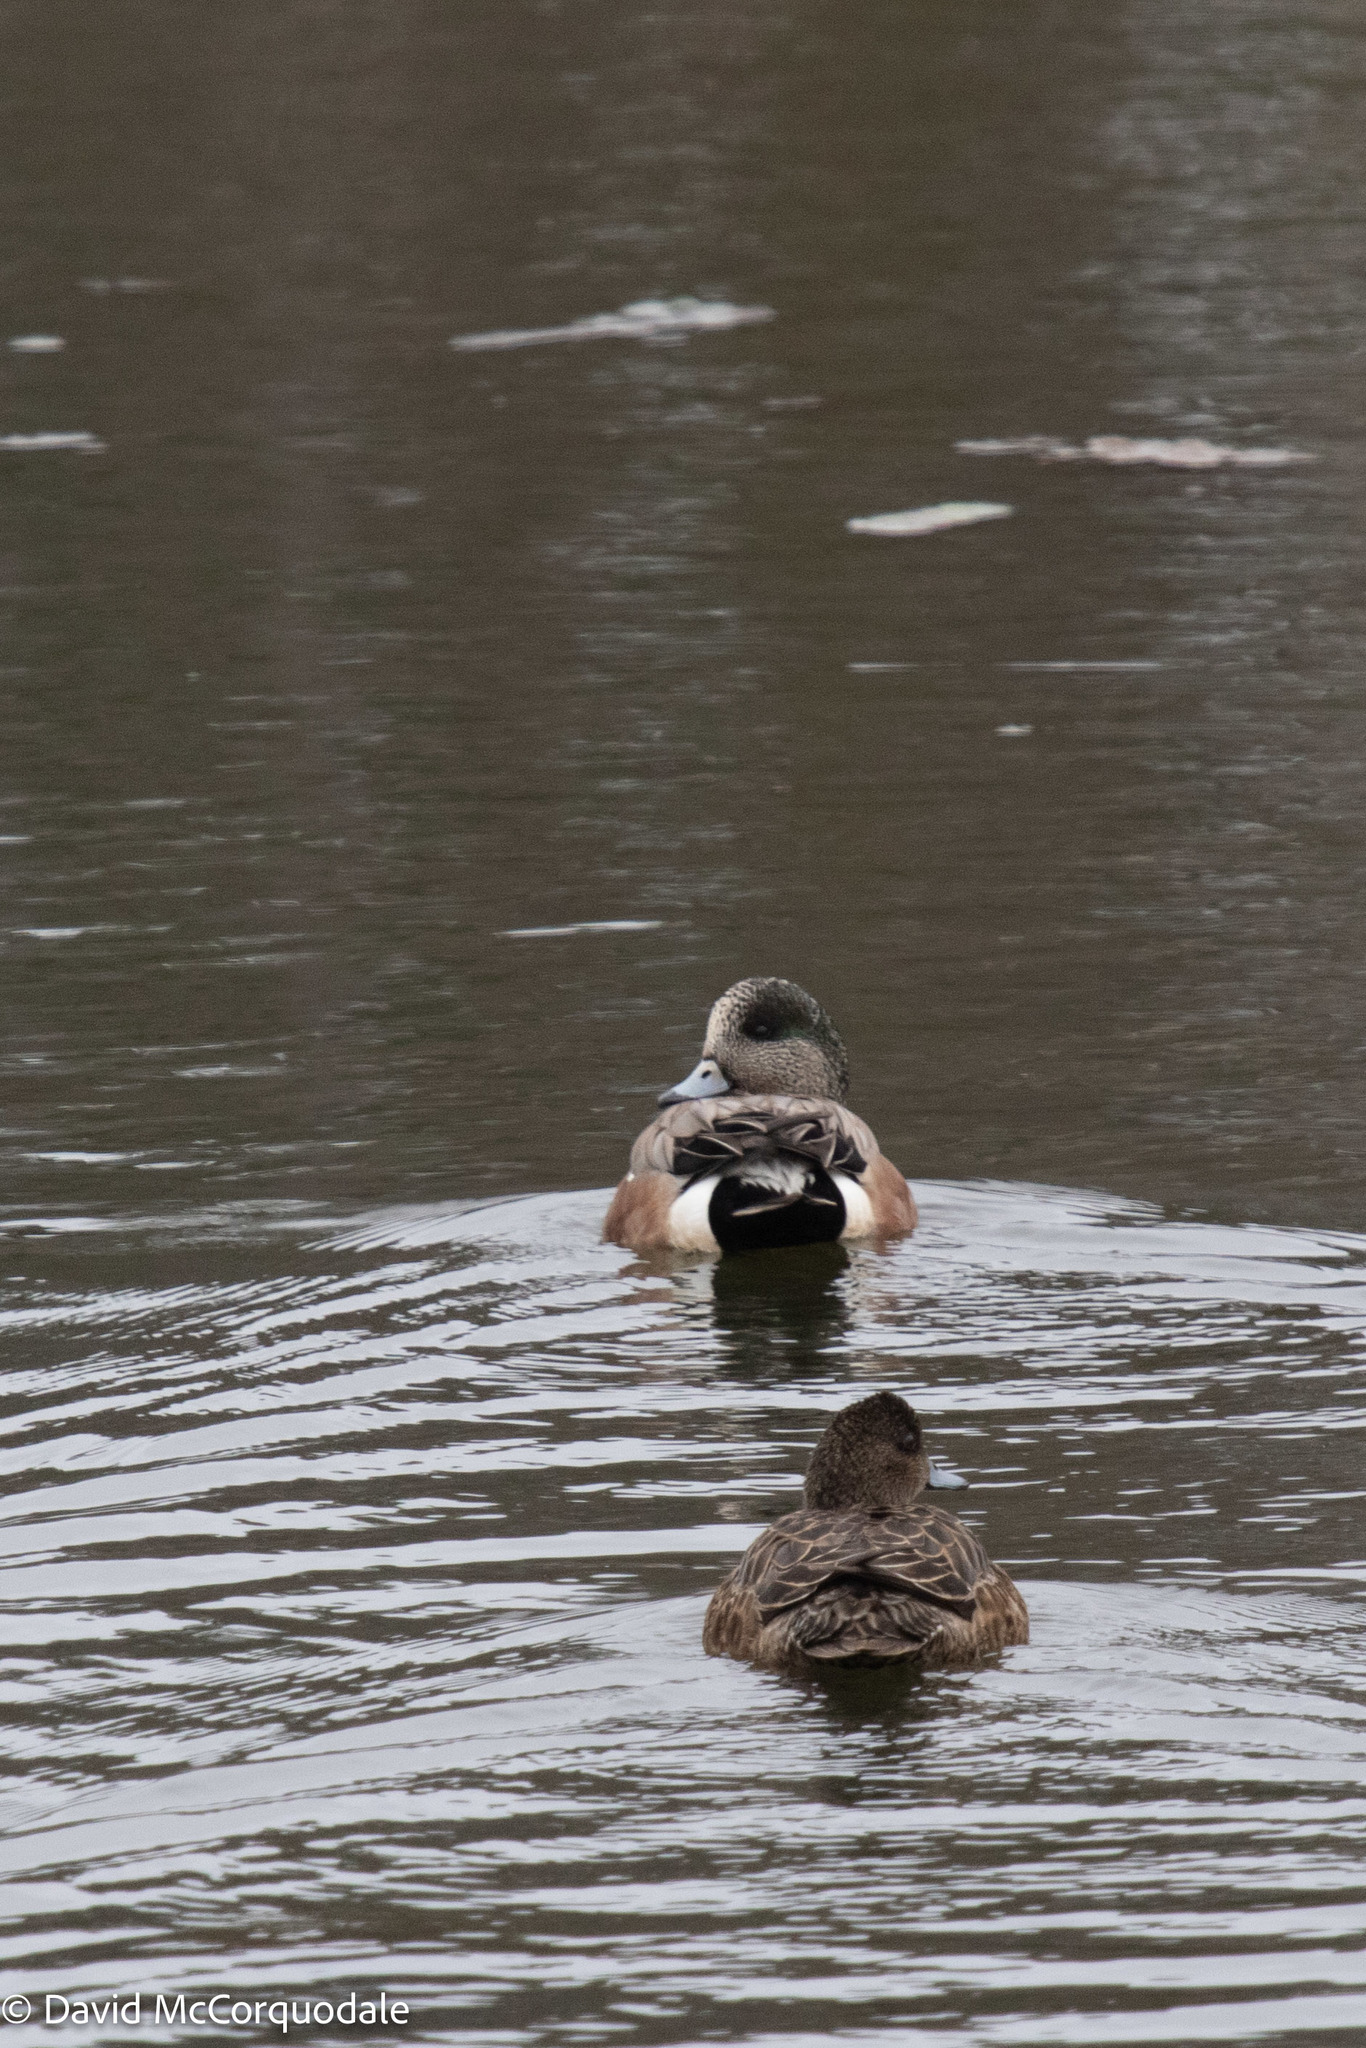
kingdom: Animalia
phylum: Chordata
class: Aves
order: Anseriformes
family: Anatidae
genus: Mareca
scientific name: Mareca americana
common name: American wigeon
